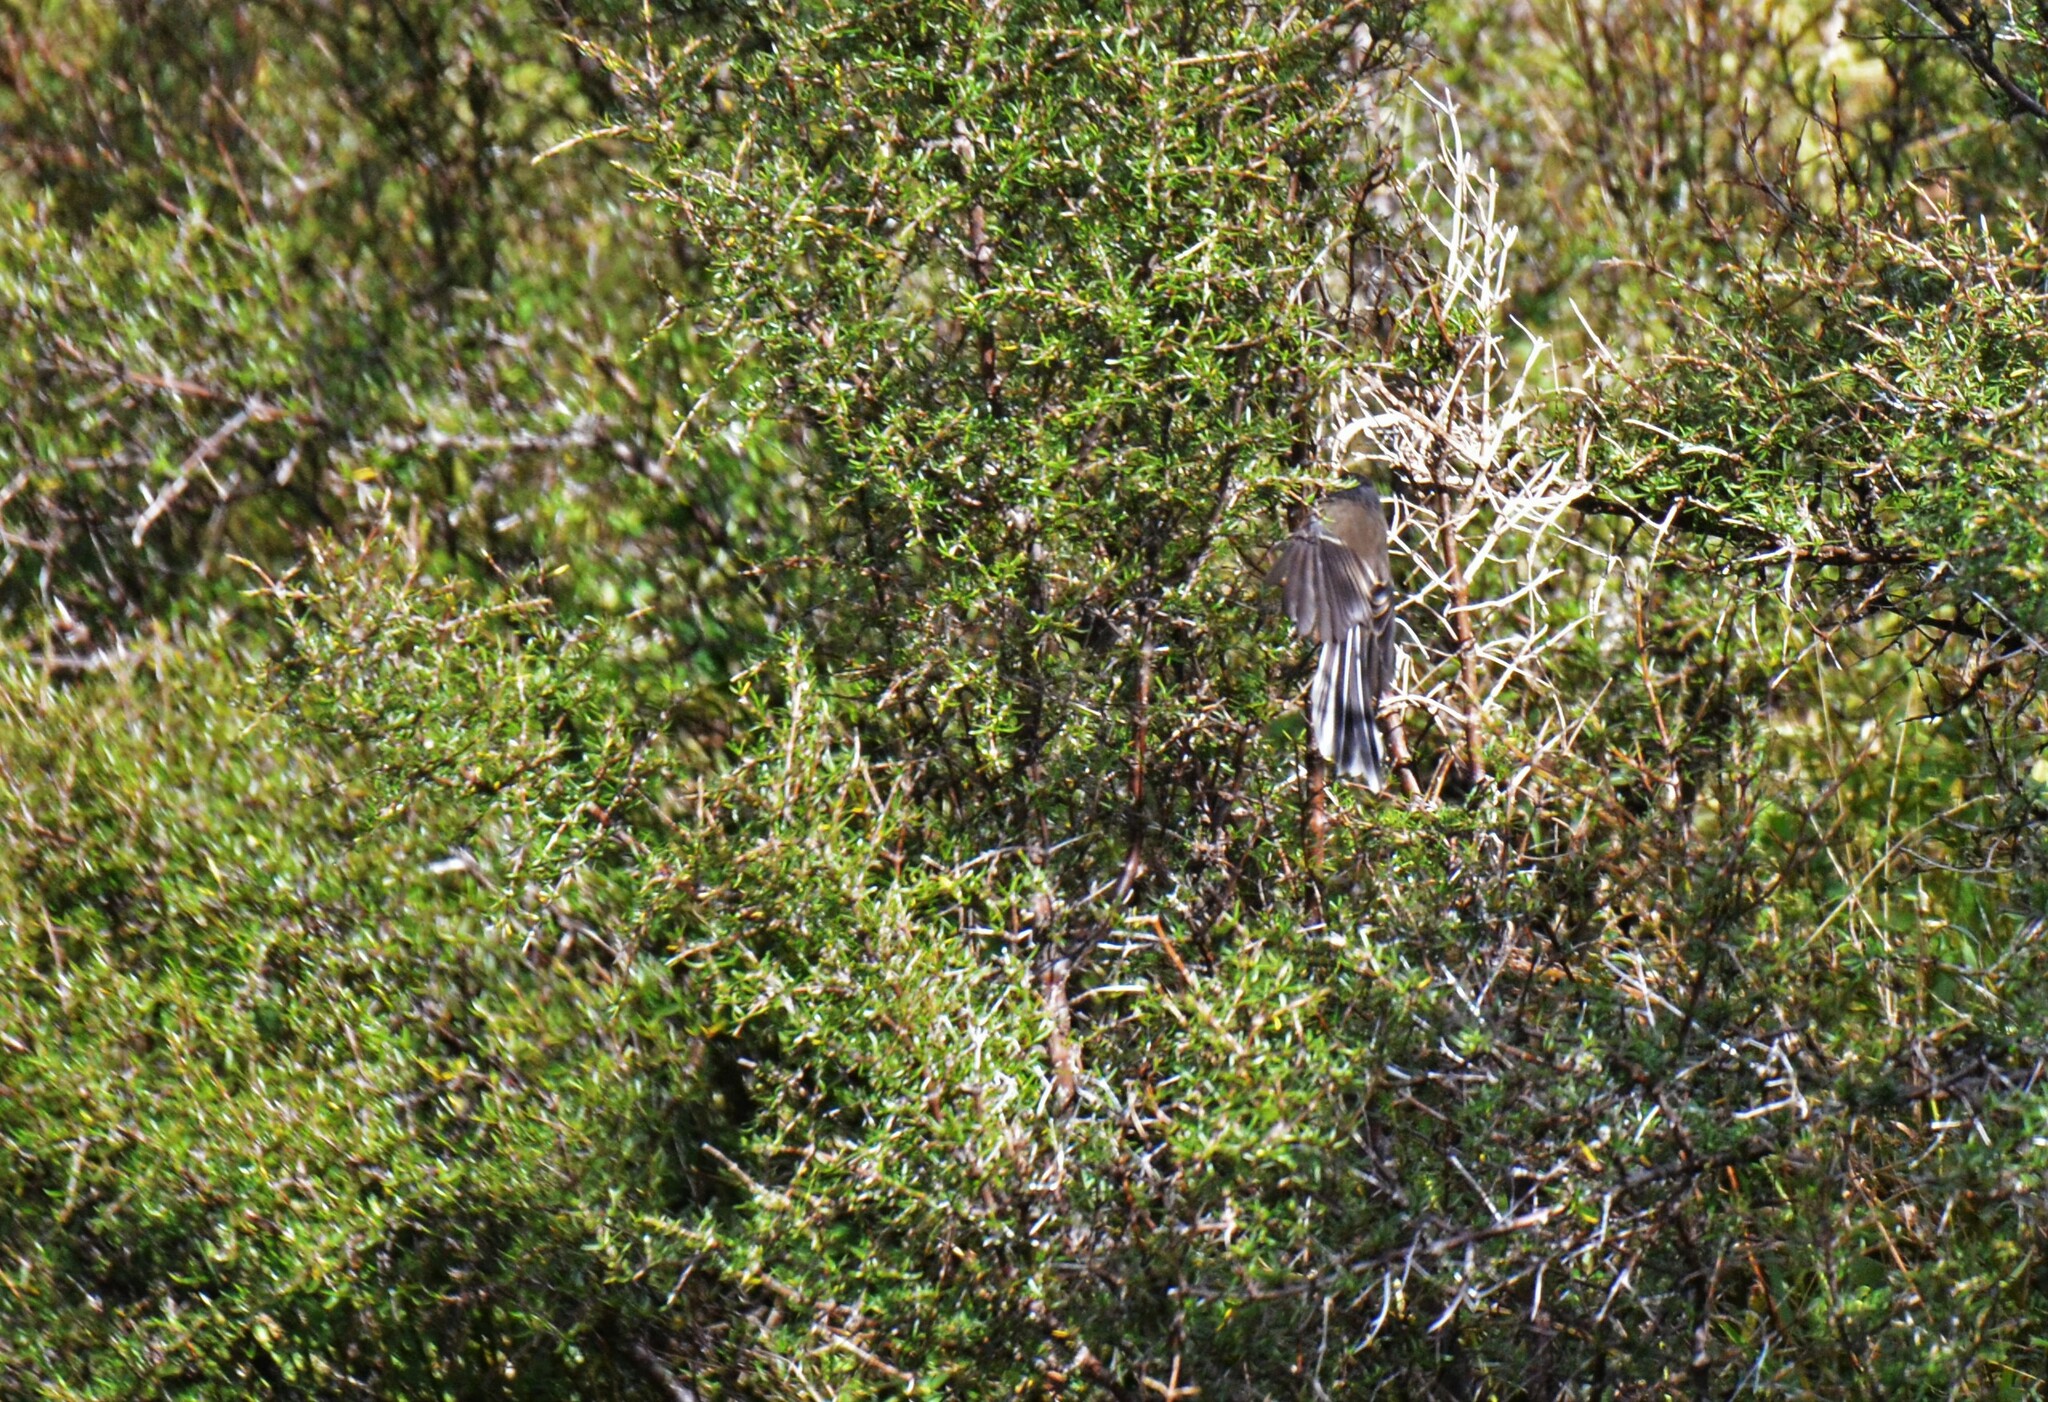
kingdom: Animalia
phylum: Chordata
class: Aves
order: Passeriformes
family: Rhipiduridae
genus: Rhipidura
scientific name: Rhipidura fuliginosa
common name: New zealand fantail
